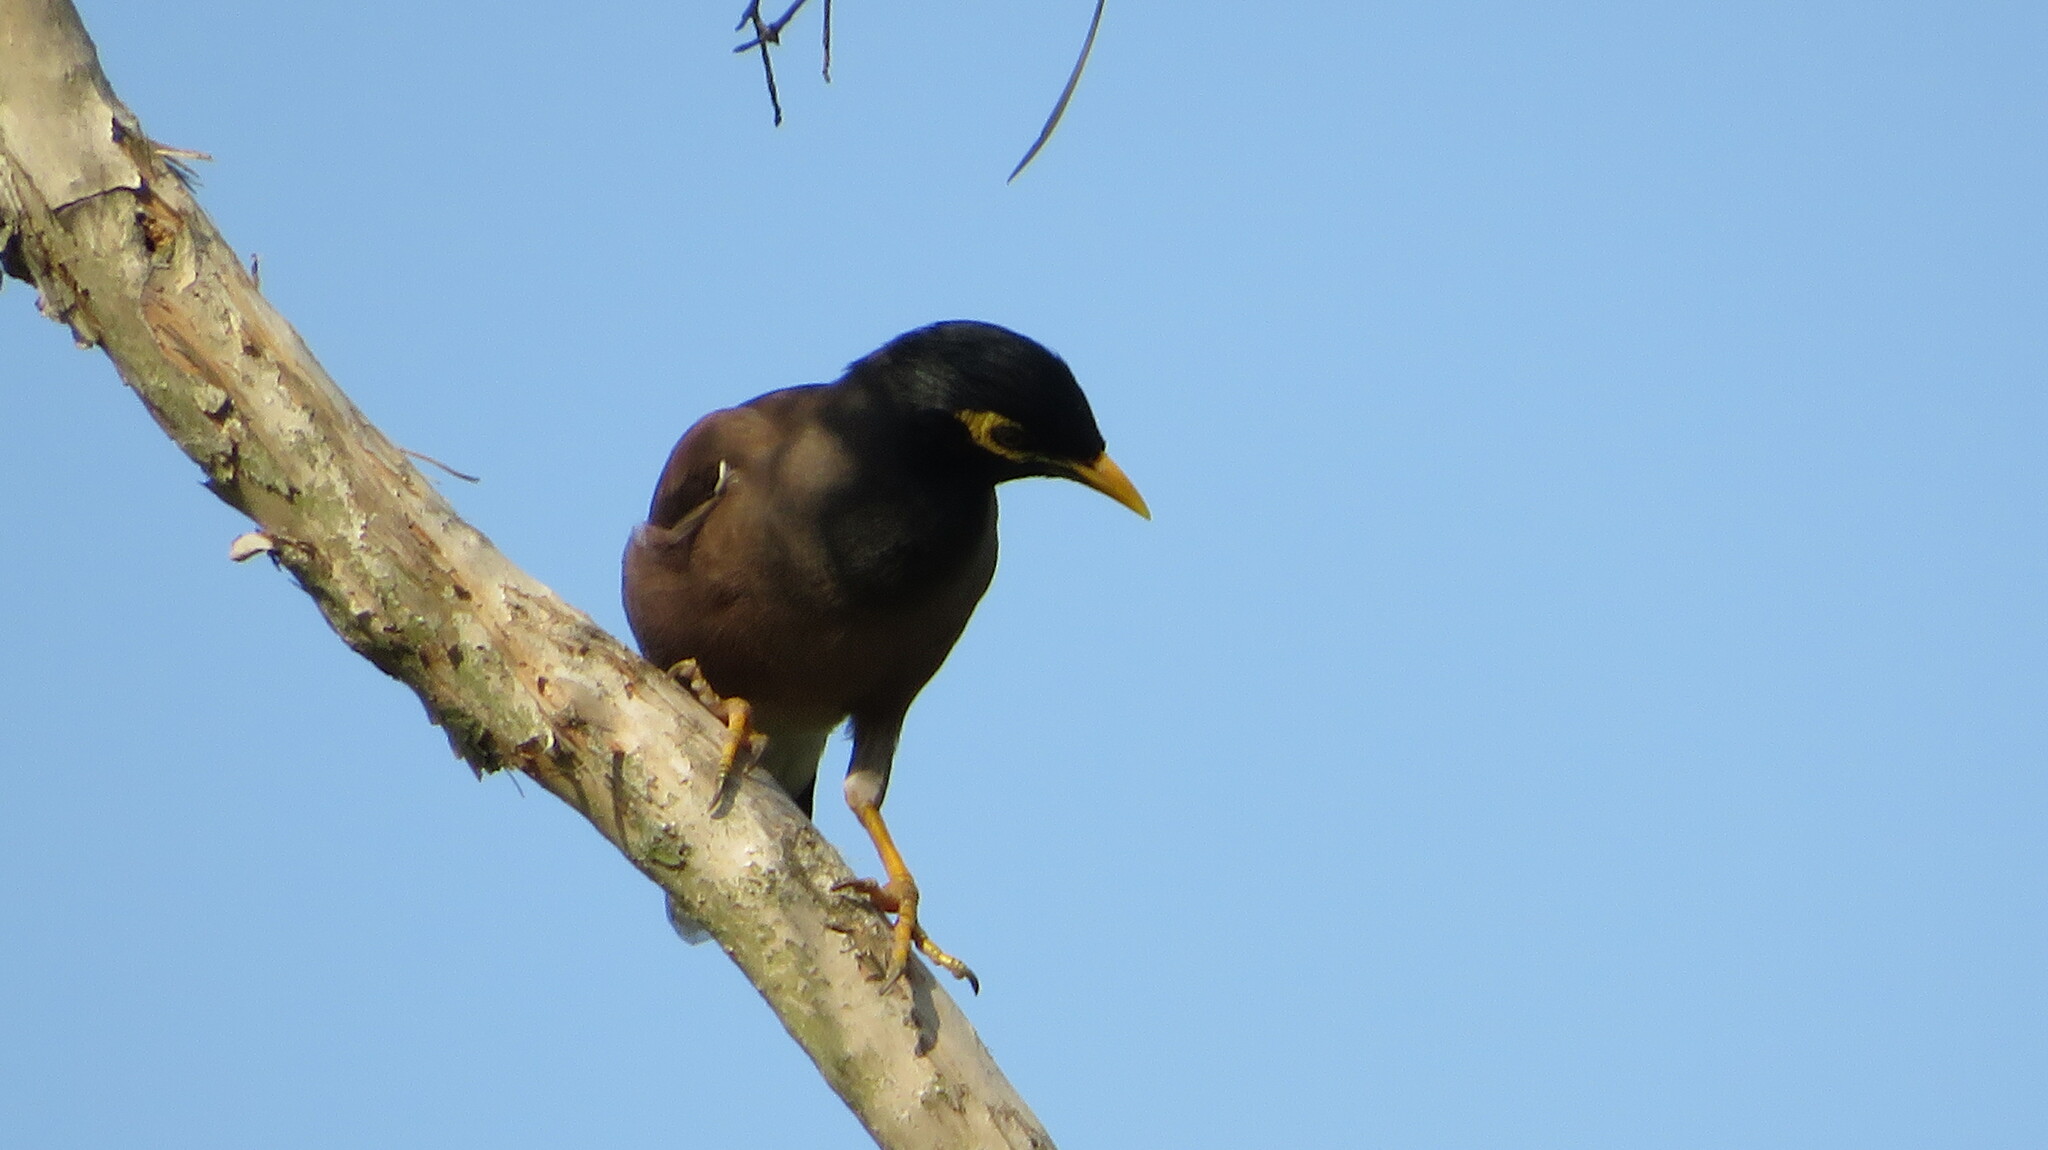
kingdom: Animalia
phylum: Chordata
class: Aves
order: Passeriformes
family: Sturnidae
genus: Acridotheres
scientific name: Acridotheres tristis
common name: Common myna
